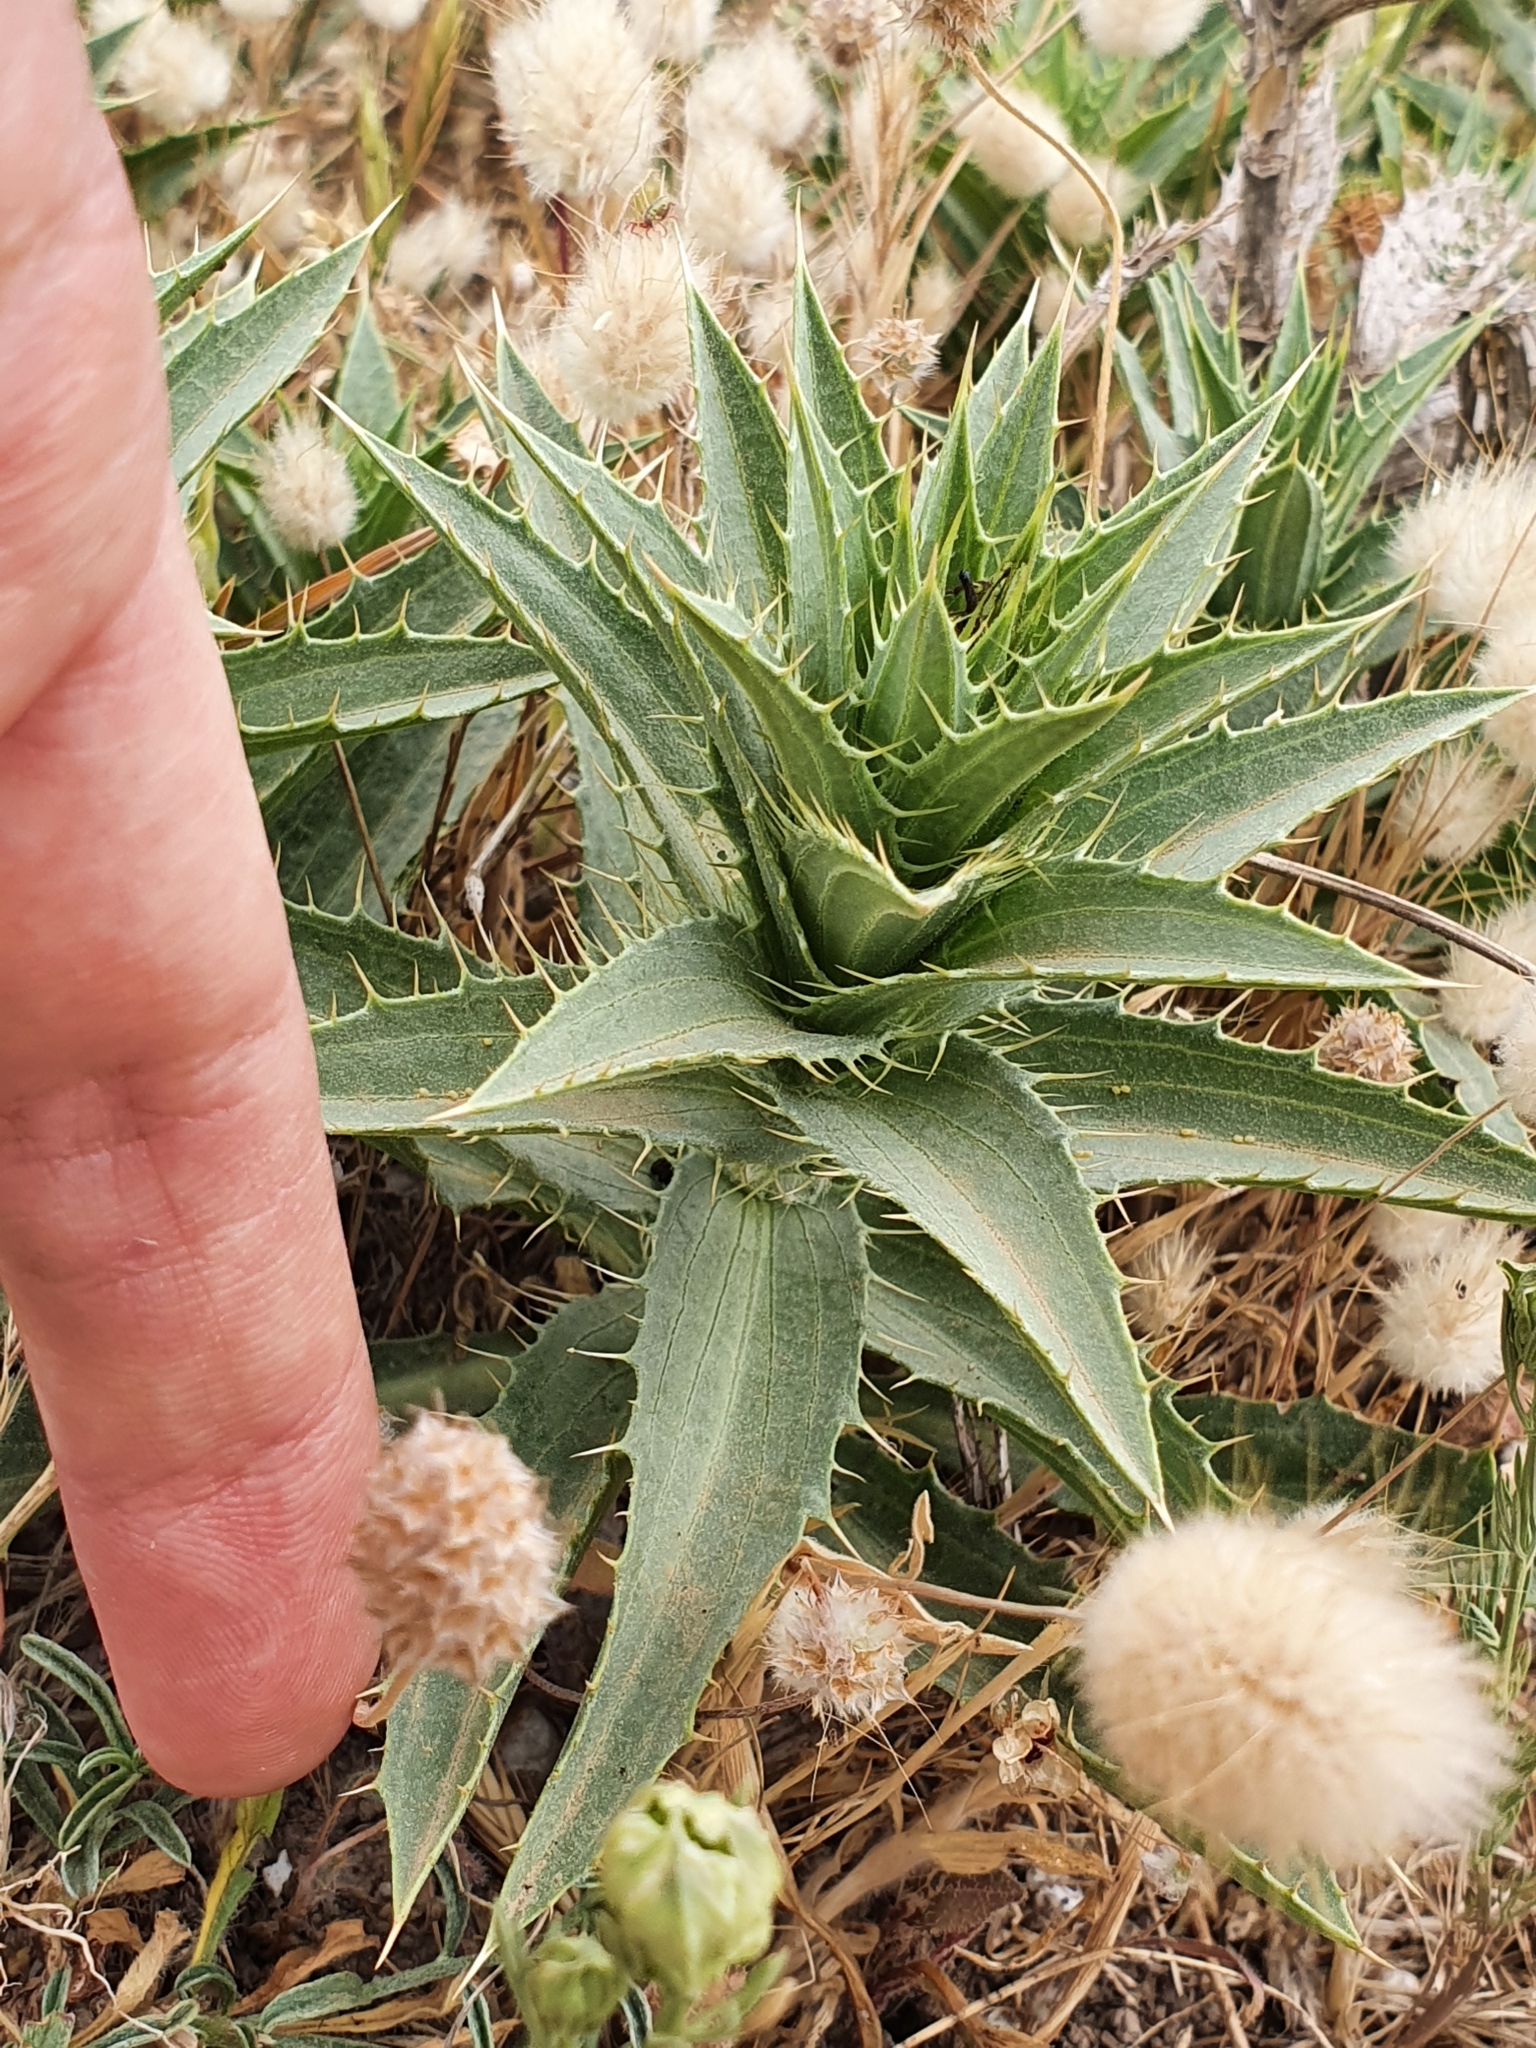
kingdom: Plantae
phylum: Tracheophyta
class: Magnoliopsida
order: Asterales
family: Asteraceae
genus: Carduncellus
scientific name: Carduncellus pectinatus
